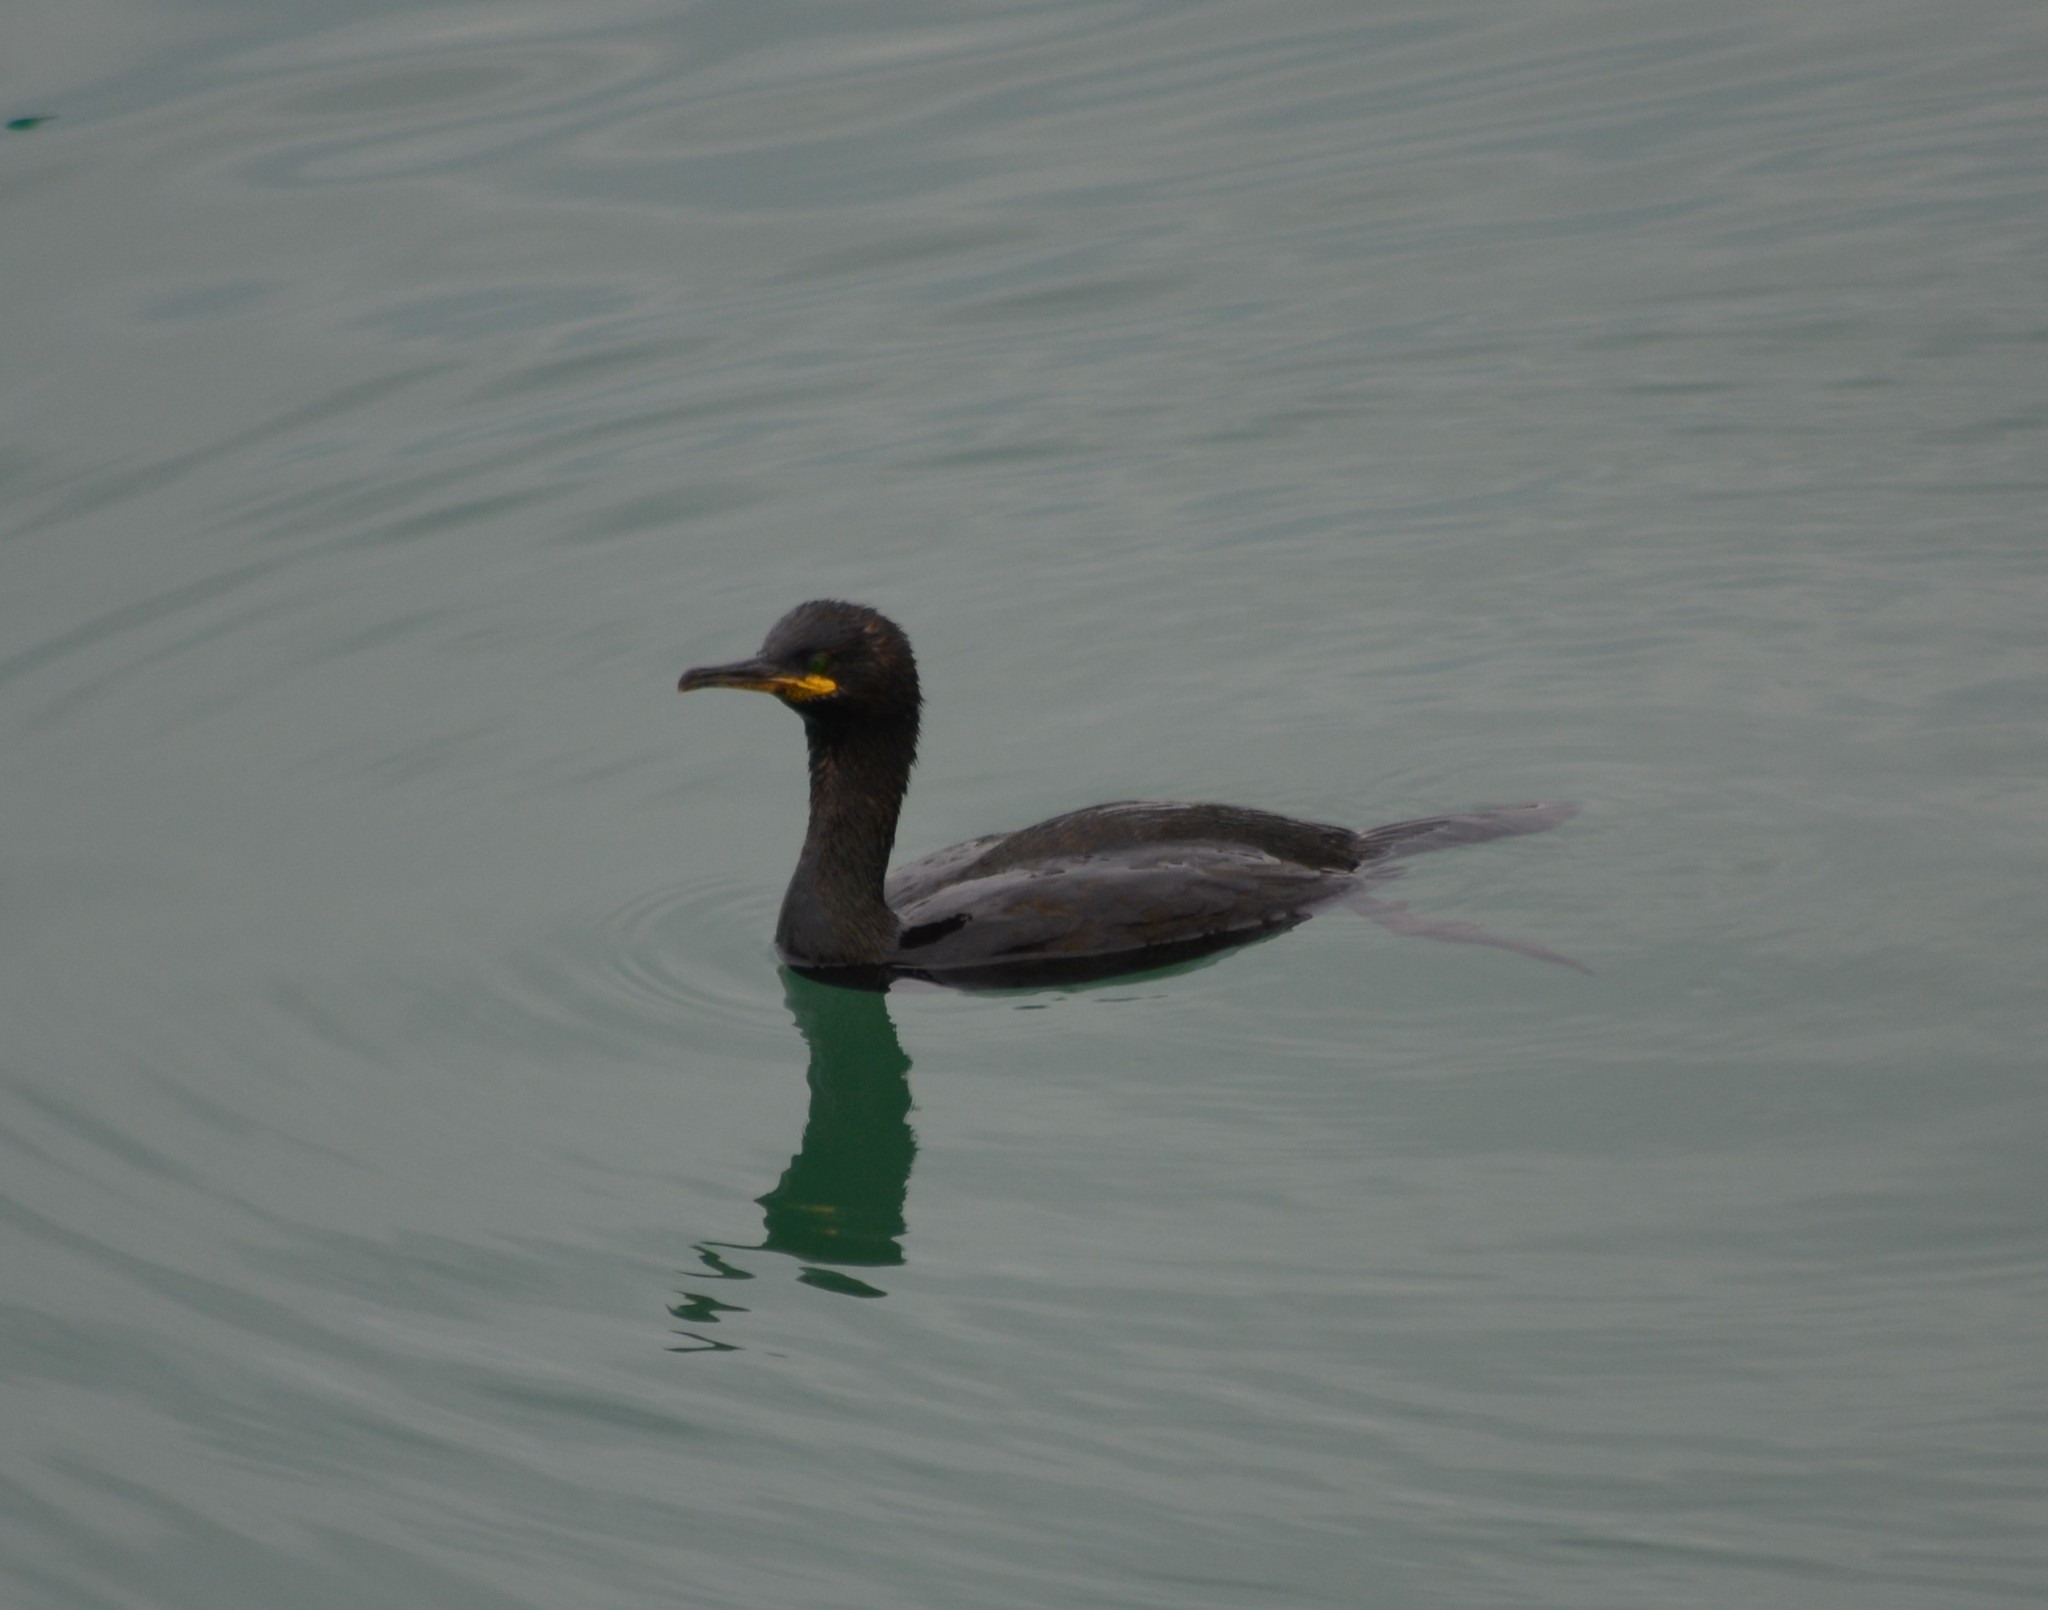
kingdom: Animalia
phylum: Chordata
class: Aves
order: Suliformes
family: Phalacrocoracidae
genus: Phalacrocorax
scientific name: Phalacrocorax aristotelis
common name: European shag
